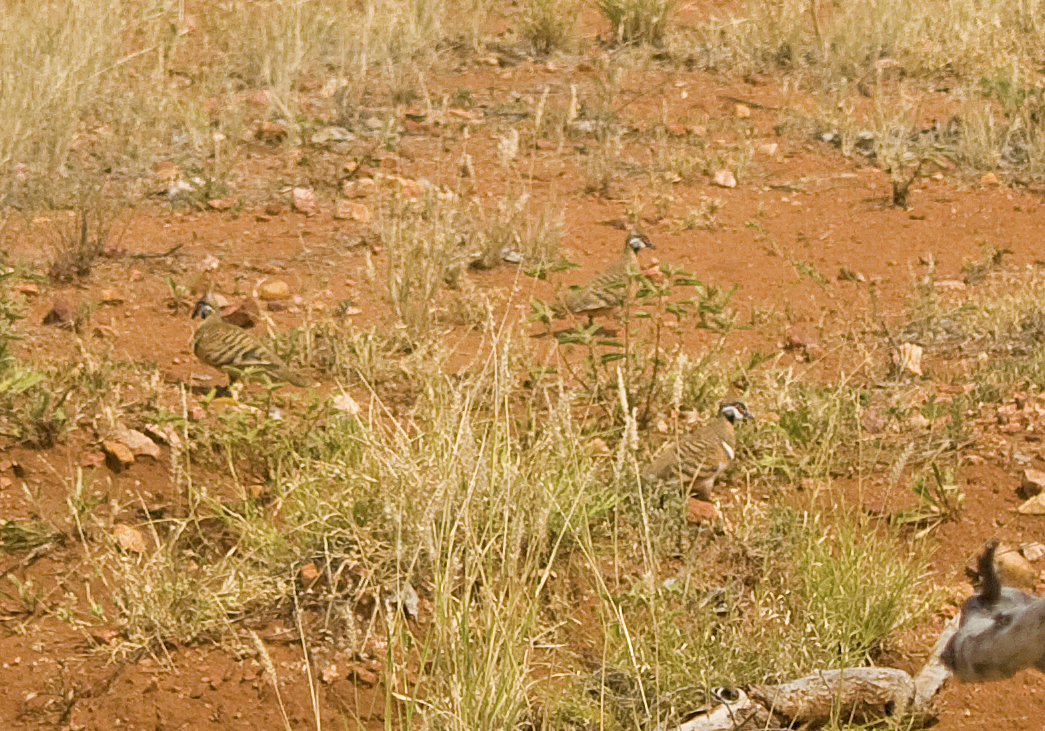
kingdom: Animalia
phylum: Chordata
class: Aves
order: Columbiformes
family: Columbidae
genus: Geophaps
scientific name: Geophaps plumifera
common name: Spinifex pigeon
